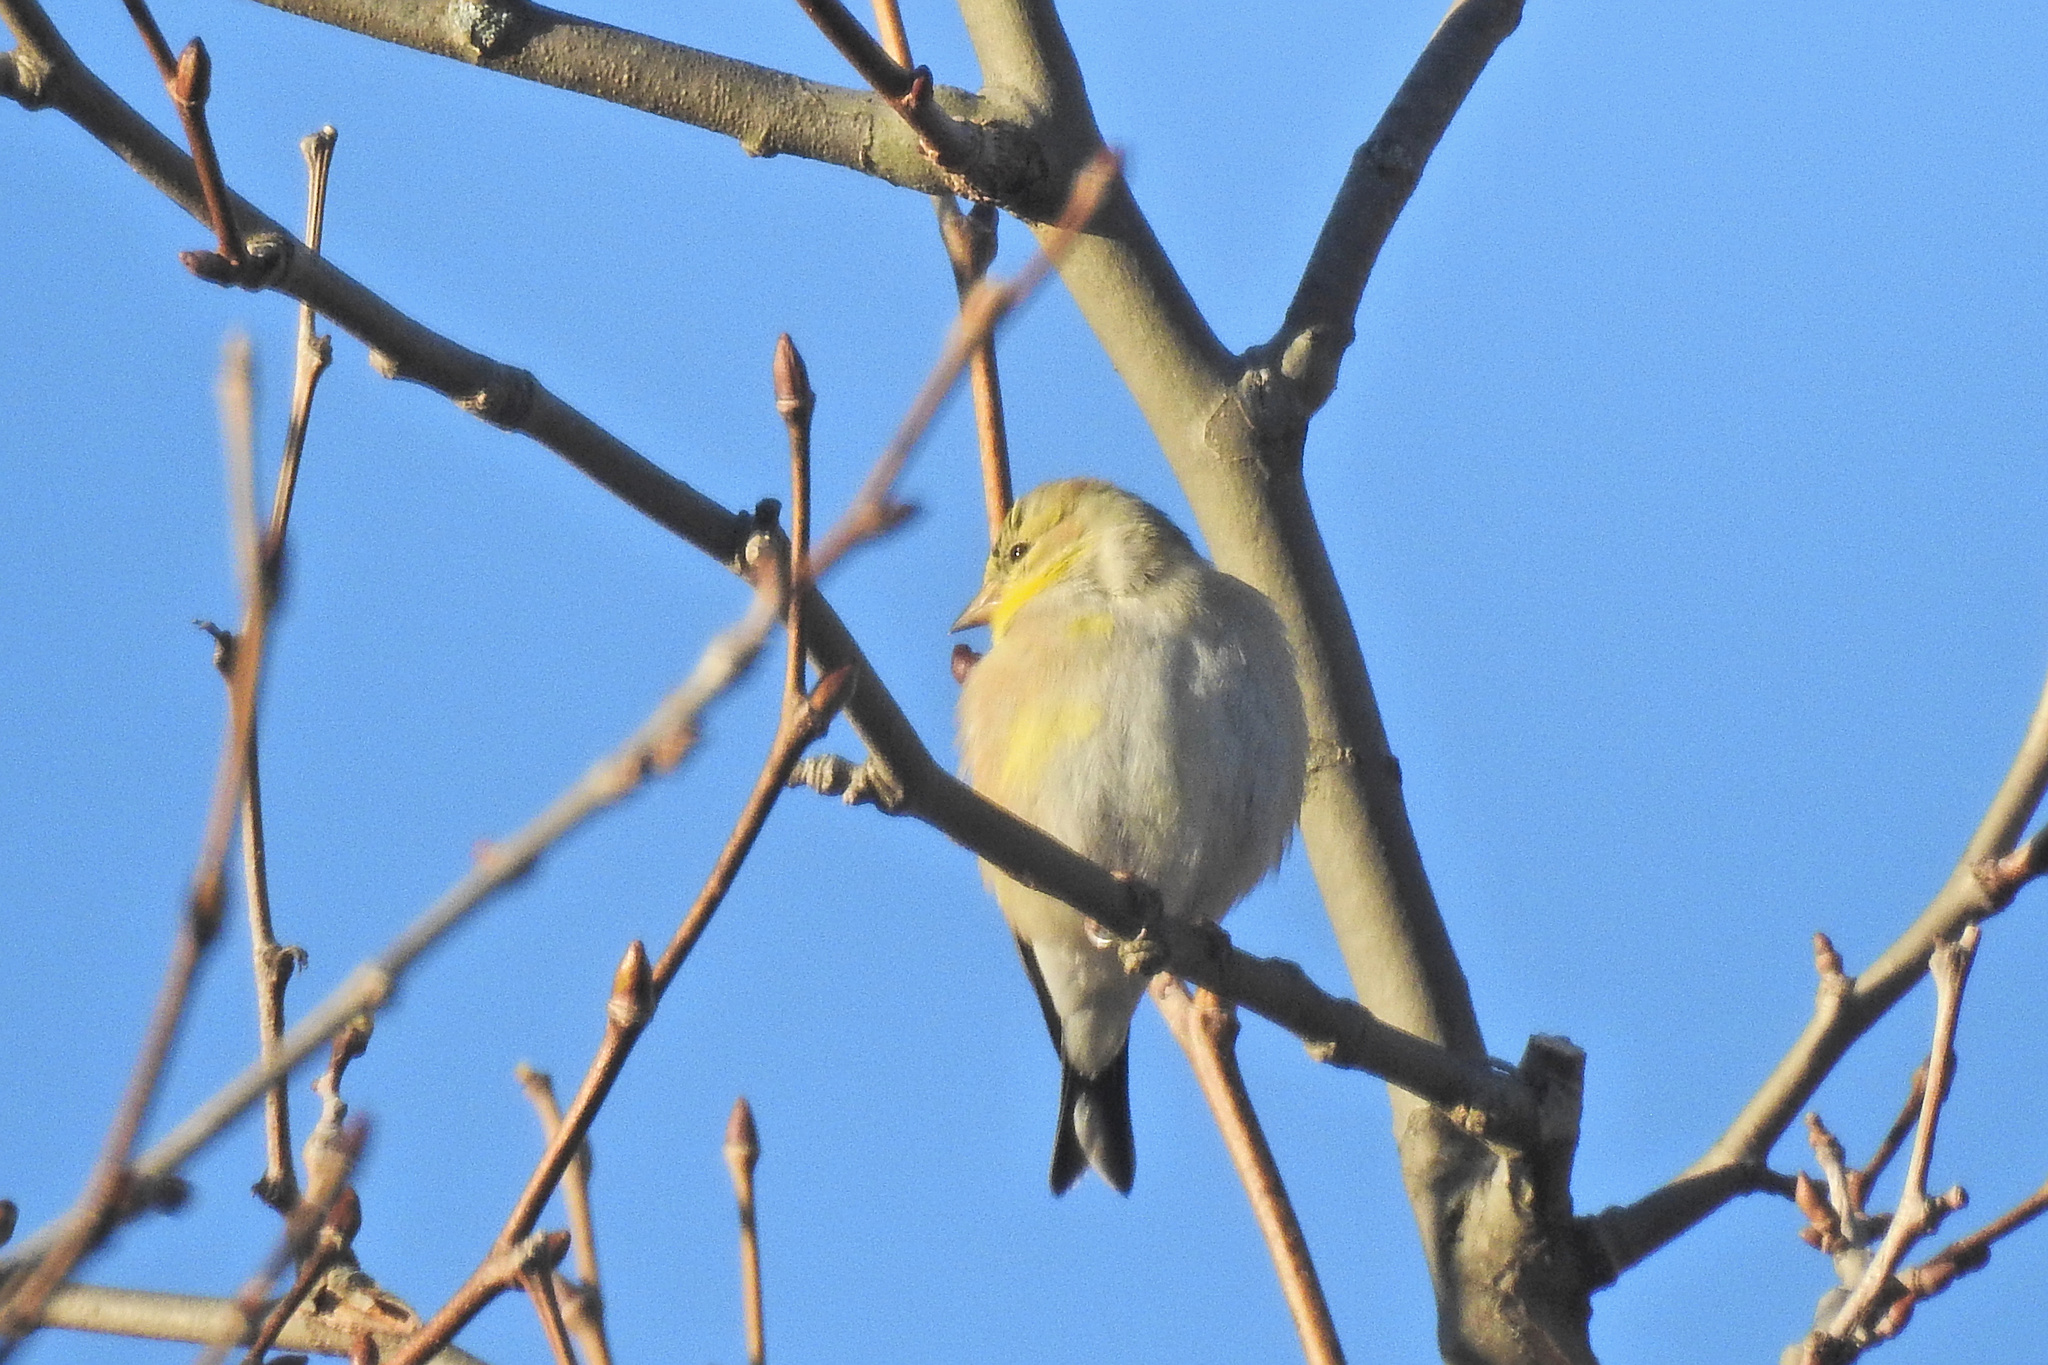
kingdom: Animalia
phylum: Chordata
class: Aves
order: Passeriformes
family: Fringillidae
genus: Spinus
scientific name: Spinus tristis
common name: American goldfinch
